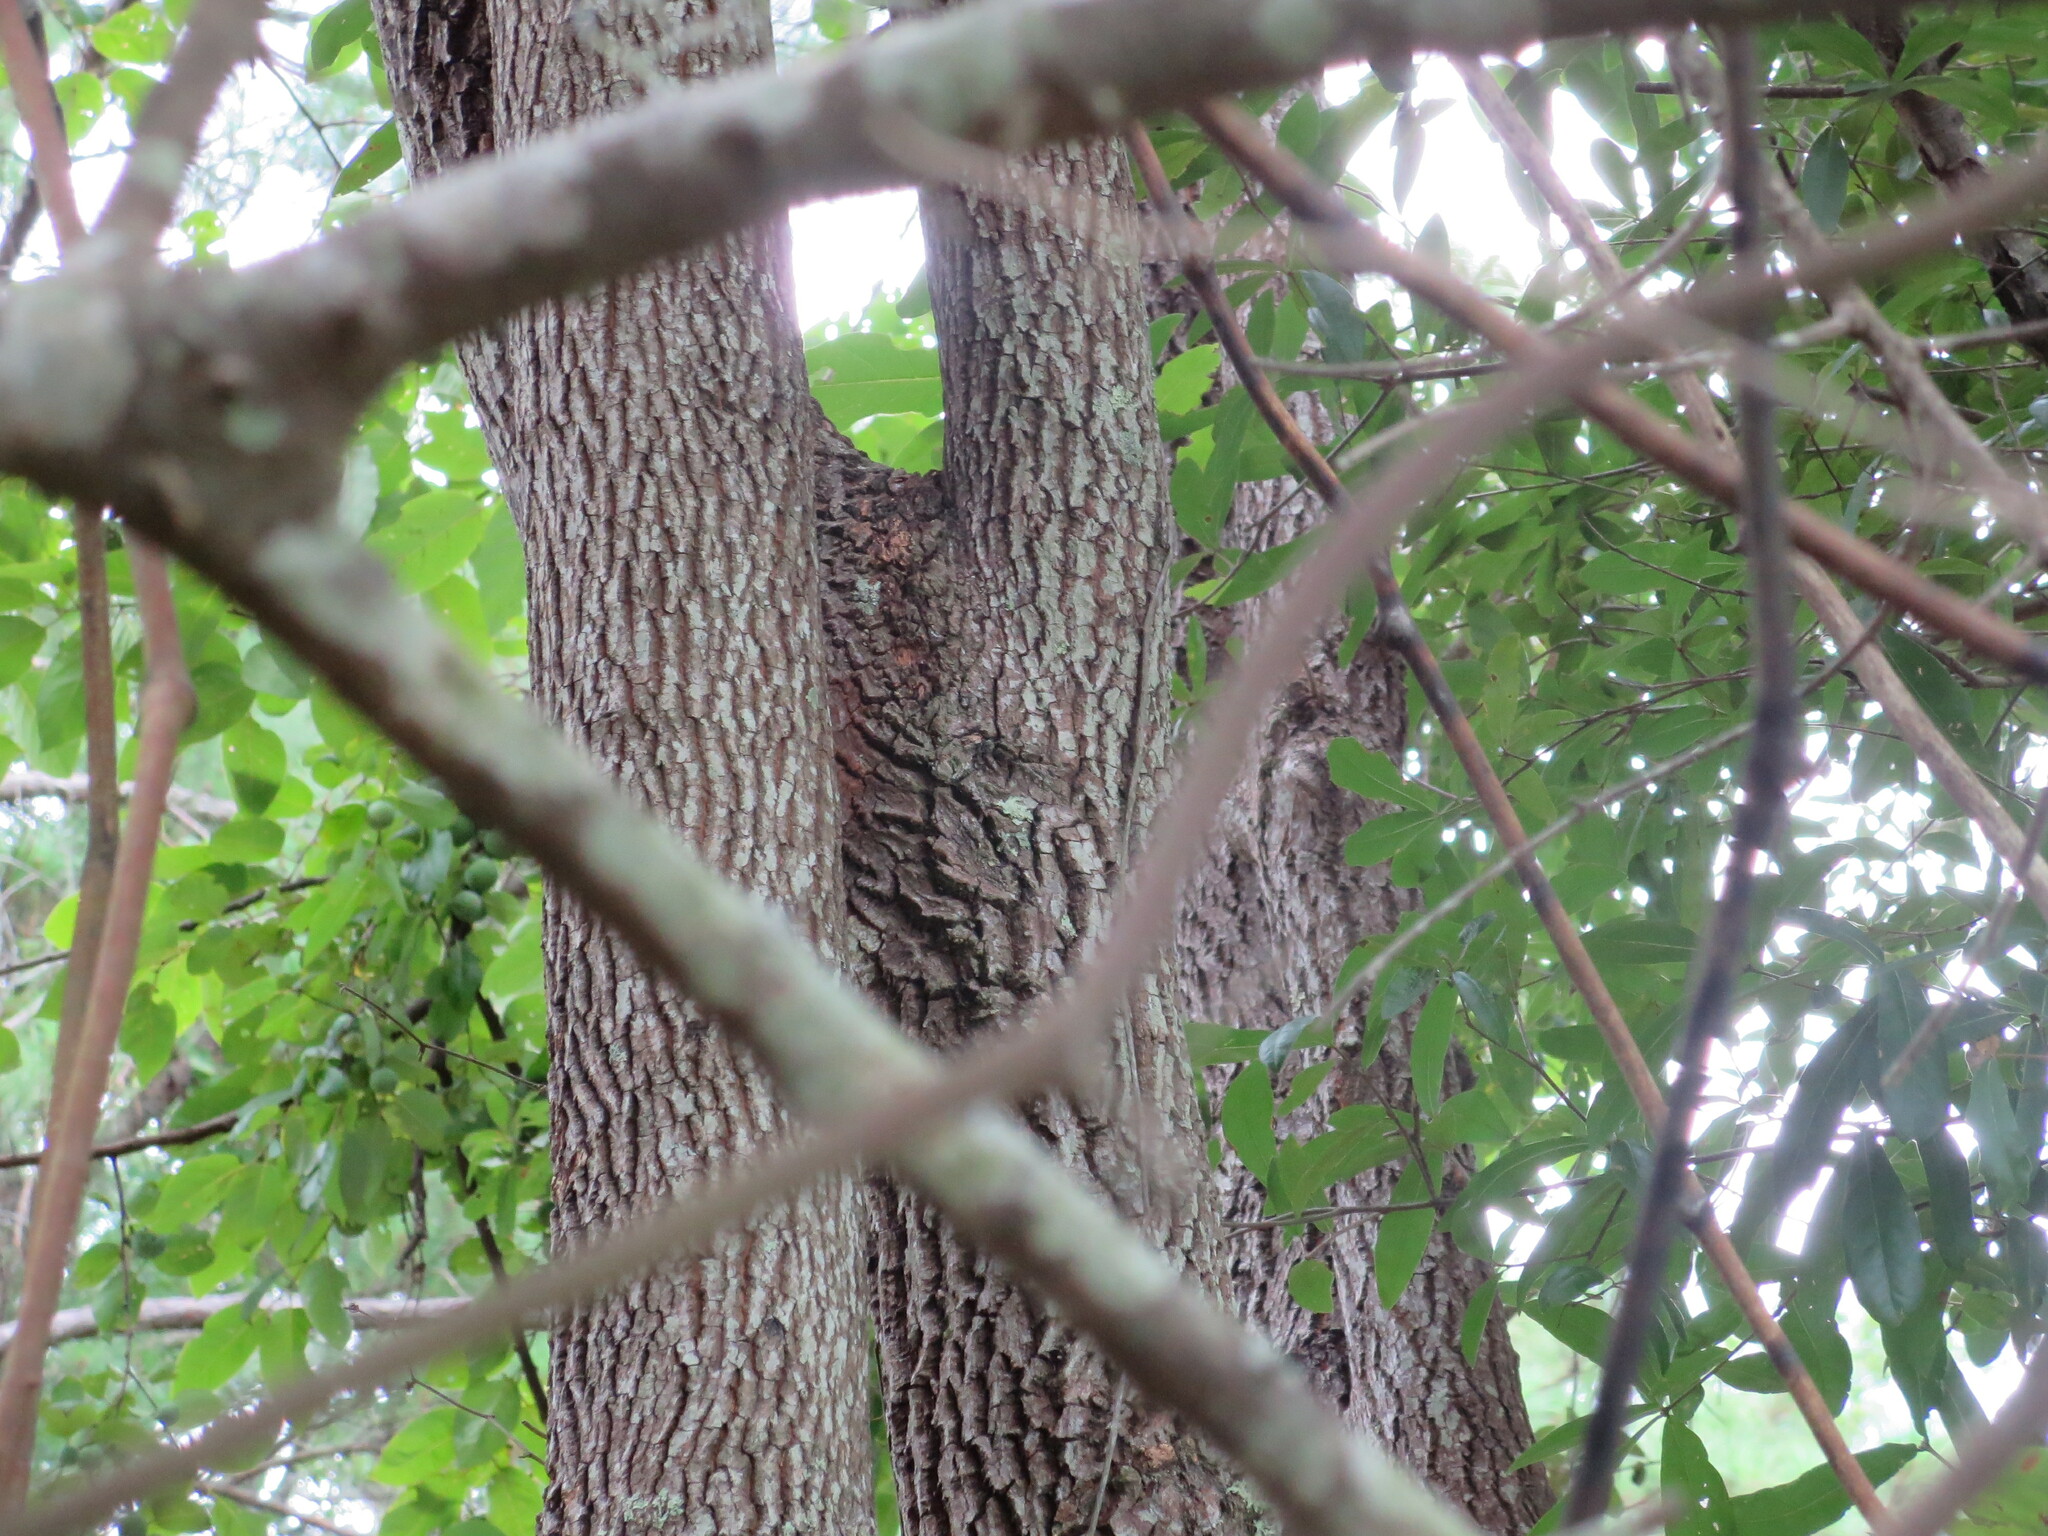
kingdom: Plantae
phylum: Tracheophyta
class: Magnoliopsida
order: Ericales
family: Ebenaceae
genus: Diospyros
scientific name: Diospyros virginiana
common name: Persimmon
